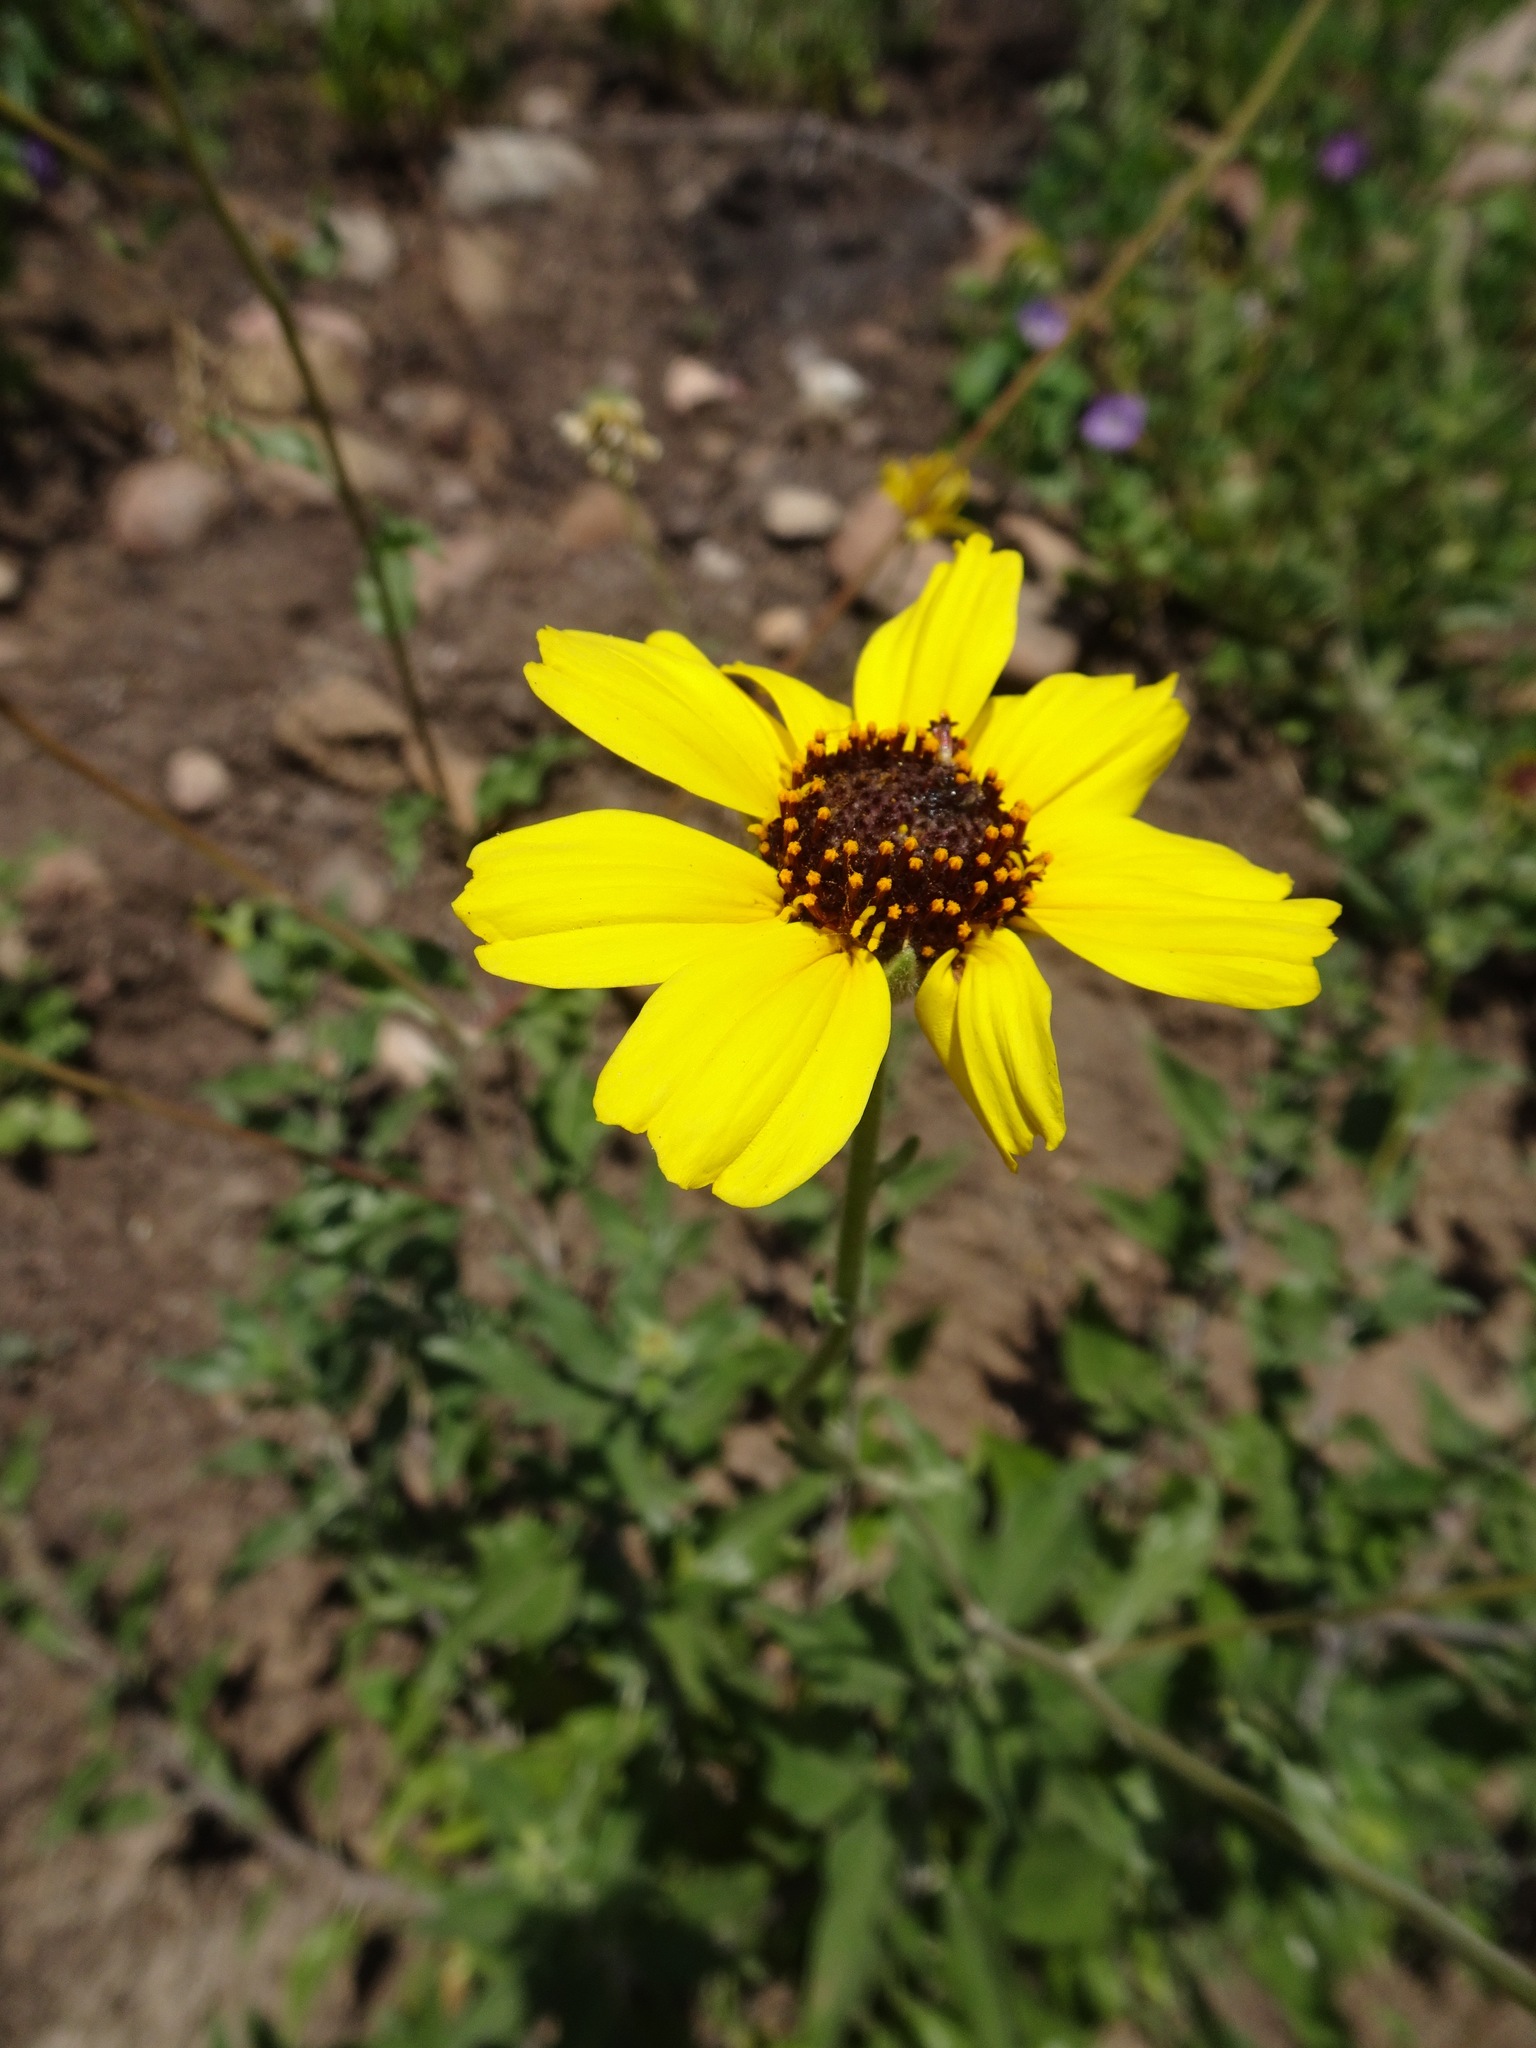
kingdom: Plantae
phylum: Tracheophyta
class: Magnoliopsida
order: Asterales
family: Asteraceae
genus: Encelia
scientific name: Encelia californica
